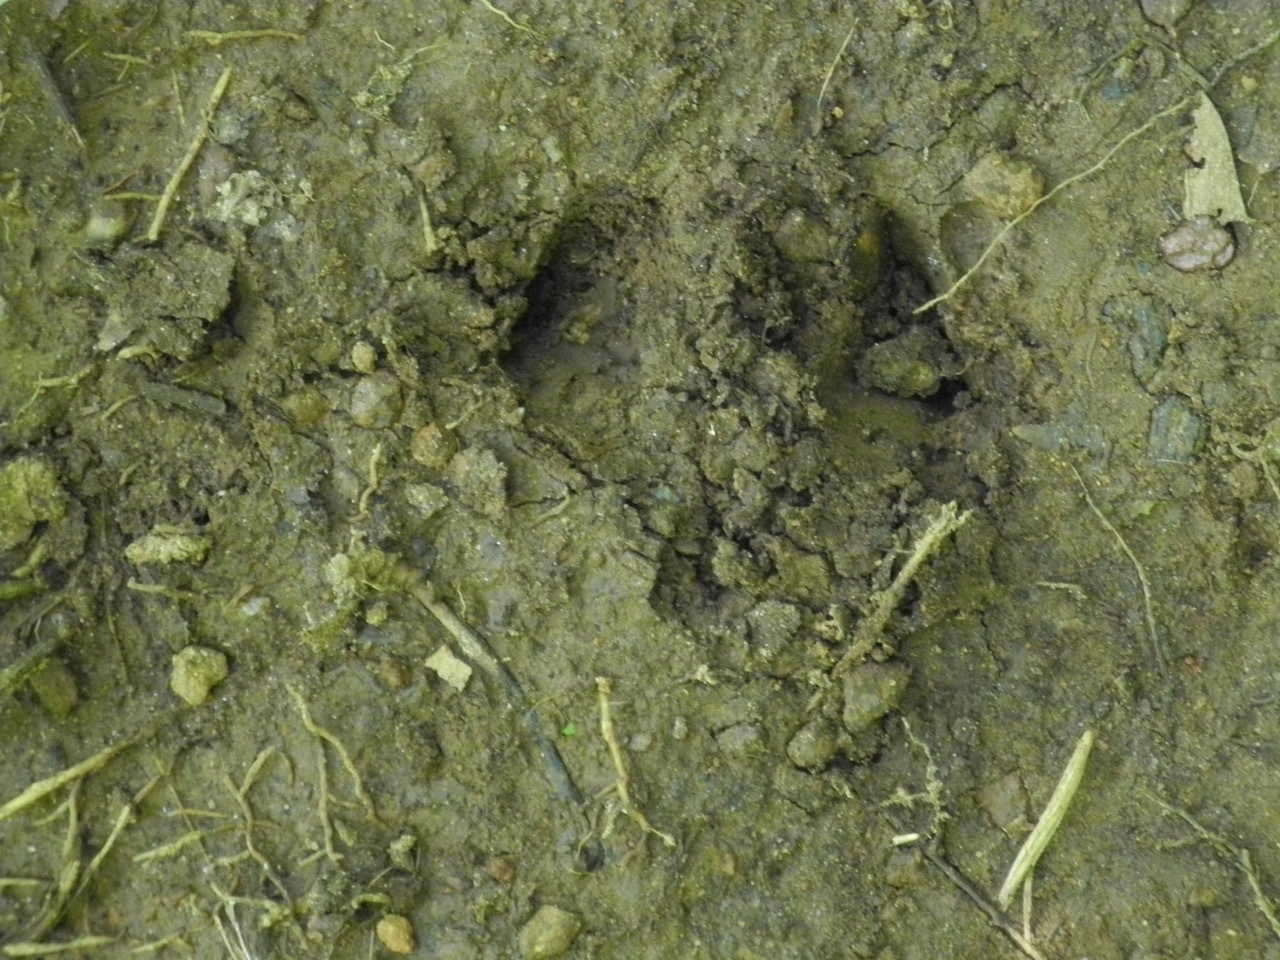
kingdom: Animalia
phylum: Chordata
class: Mammalia
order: Artiodactyla
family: Cervidae
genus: Odocoileus
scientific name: Odocoileus virginianus
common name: White-tailed deer
